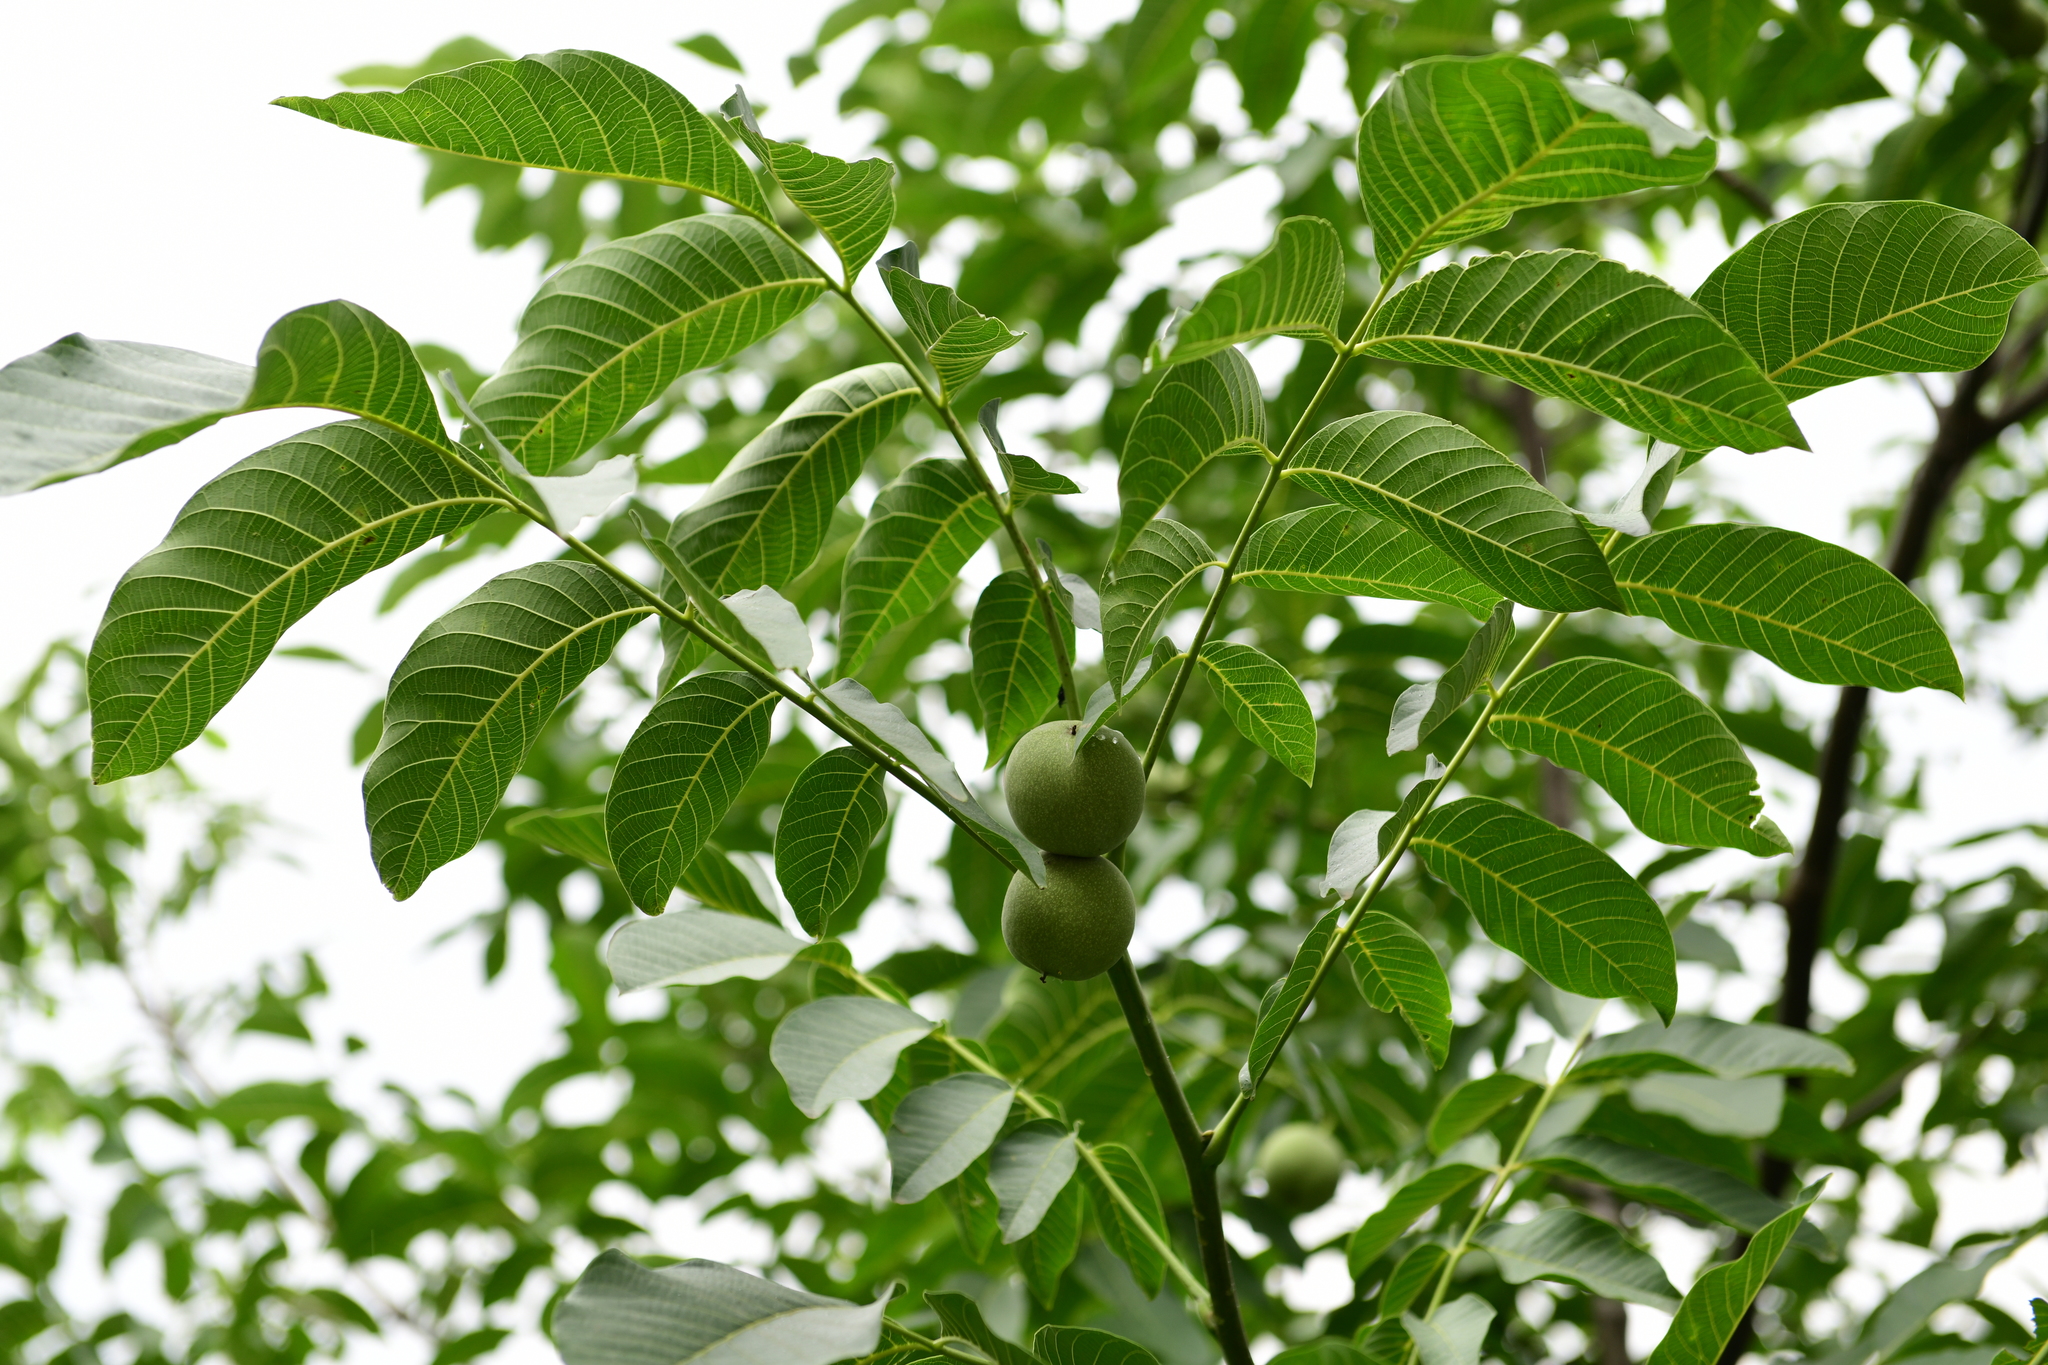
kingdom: Plantae
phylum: Tracheophyta
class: Magnoliopsida
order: Fagales
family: Juglandaceae
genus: Juglans
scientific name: Juglans regia
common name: Walnut
